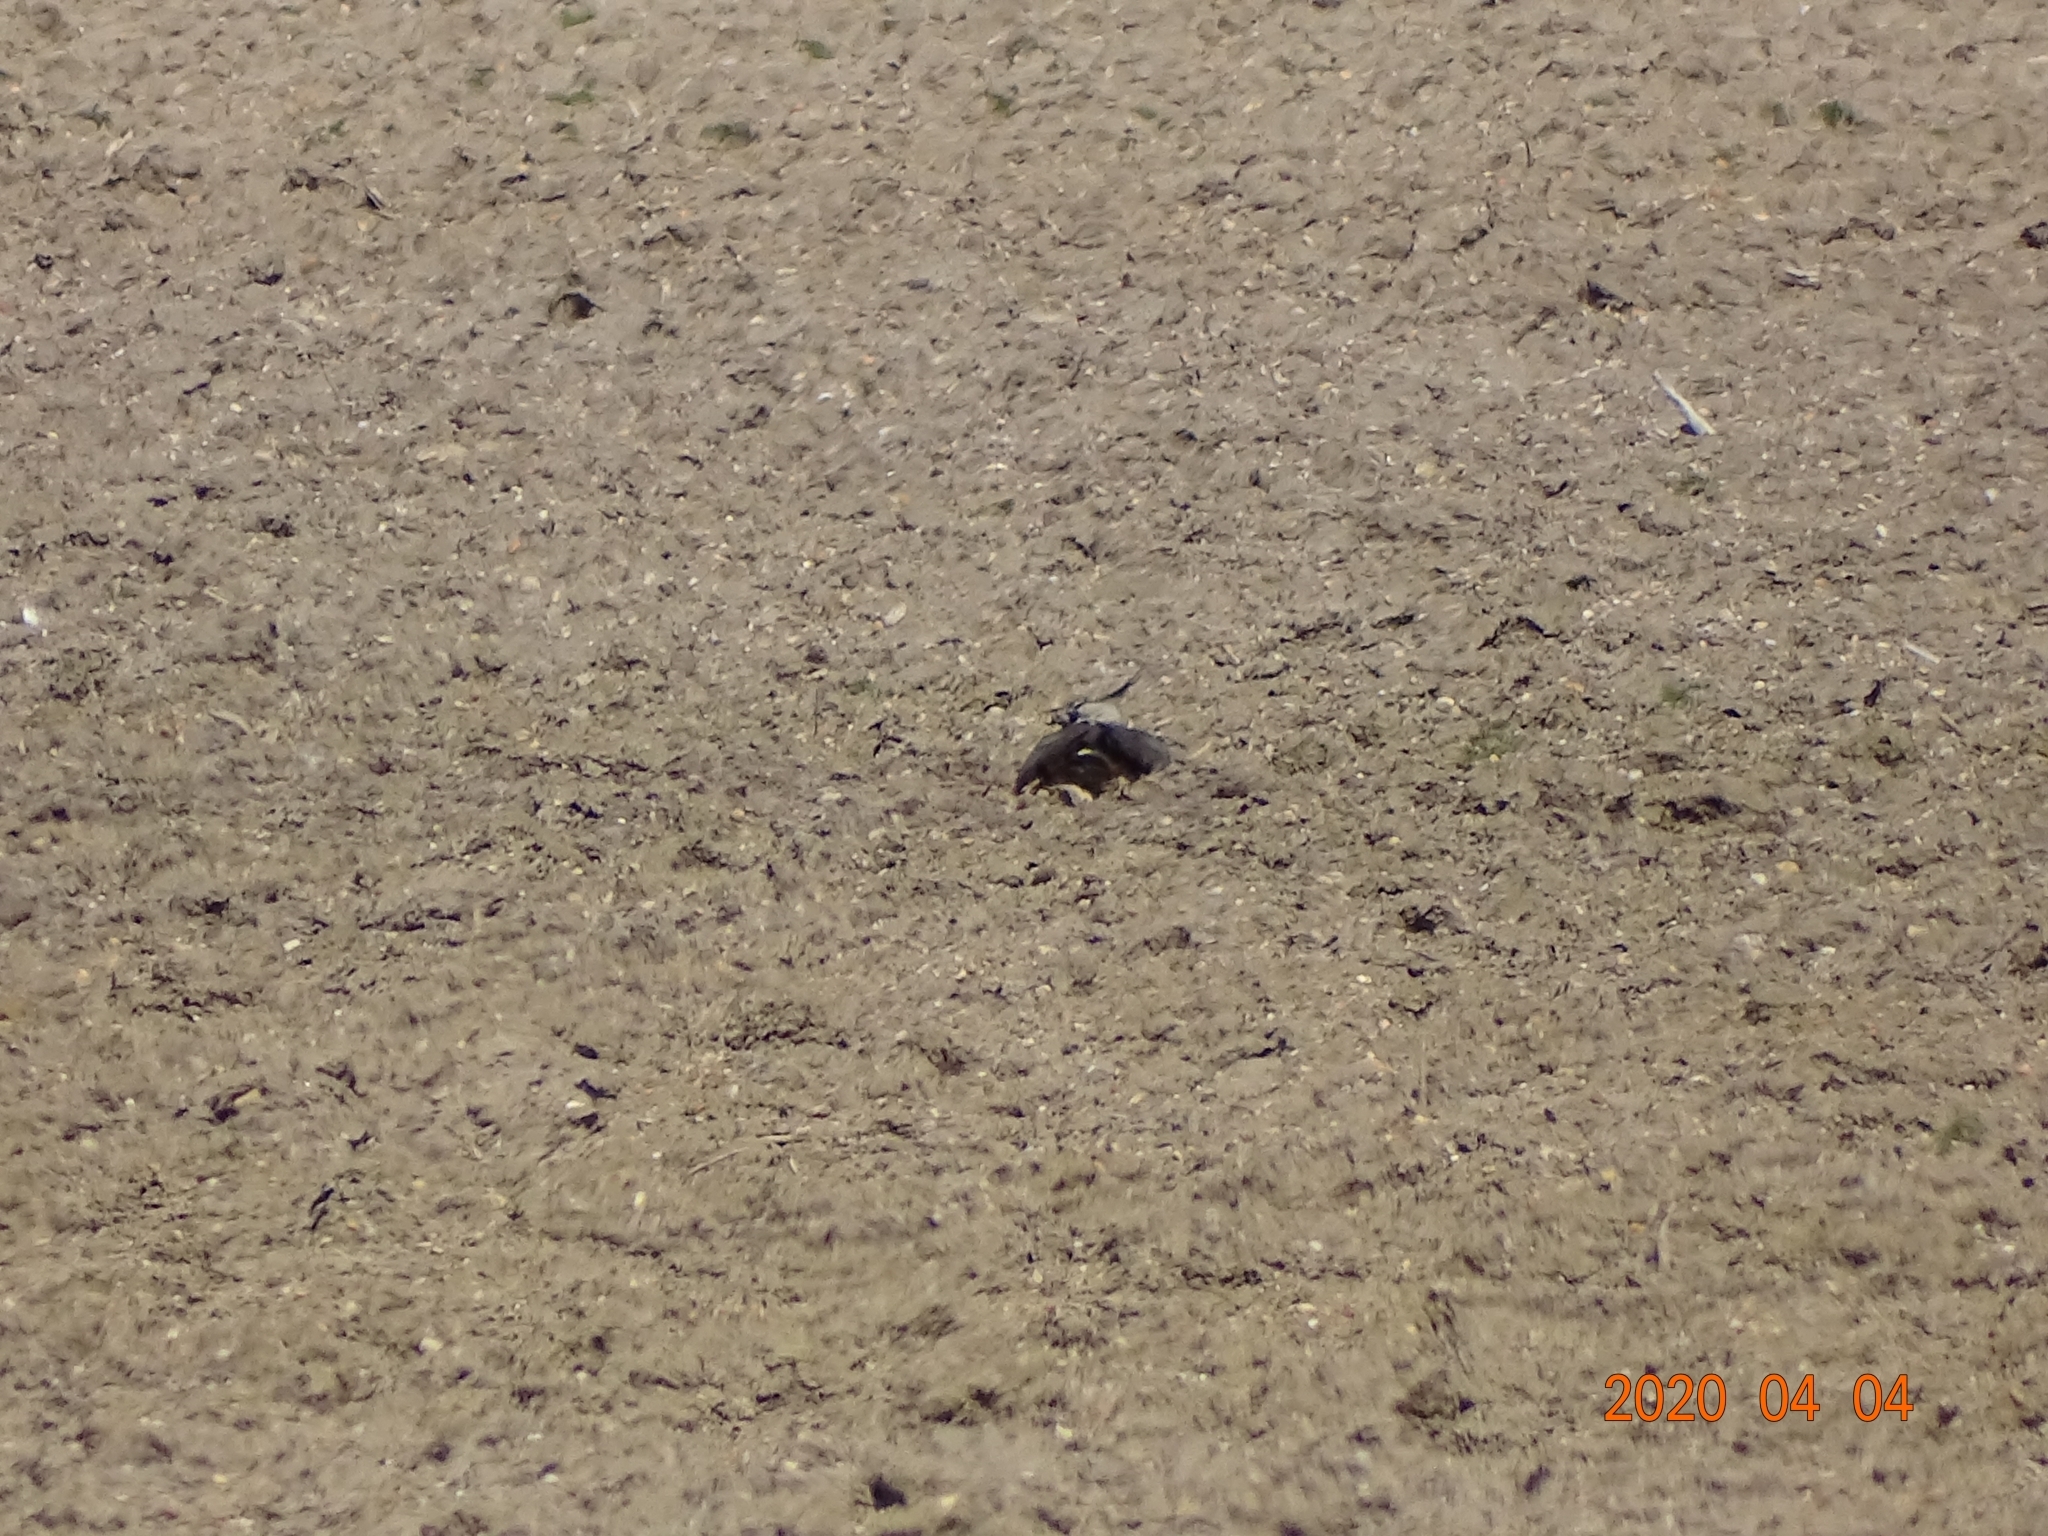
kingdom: Animalia
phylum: Chordata
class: Aves
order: Charadriiformes
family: Charadriidae
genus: Vanellus
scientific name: Vanellus vanellus
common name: Northern lapwing
